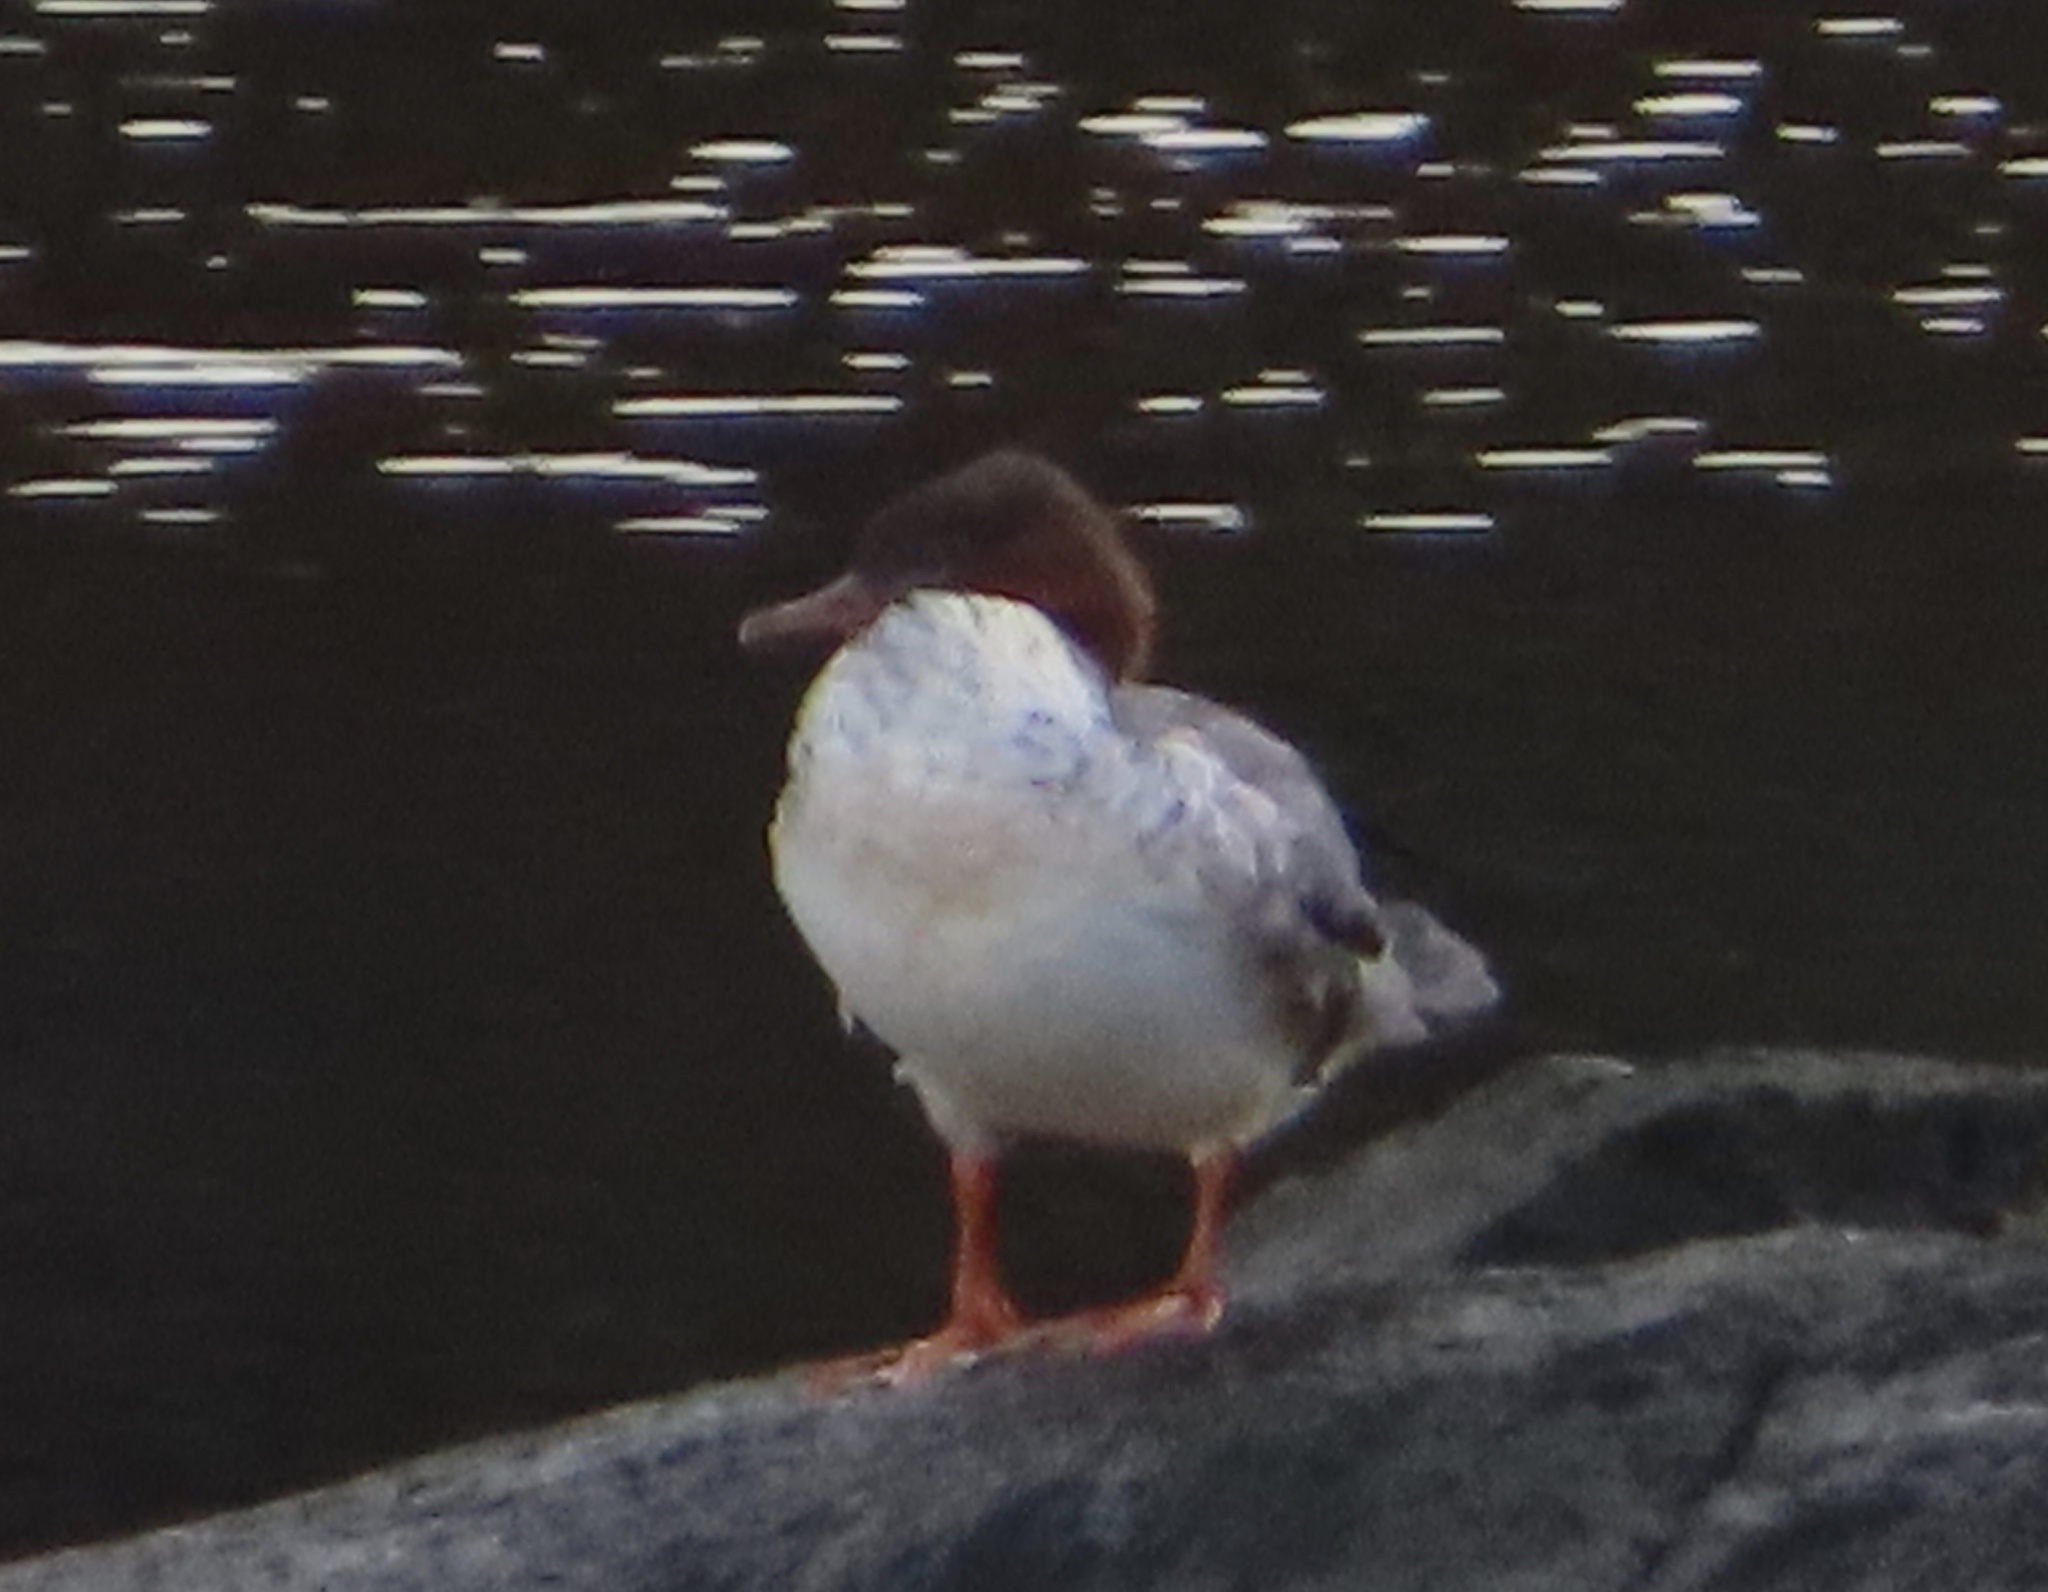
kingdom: Animalia
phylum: Chordata
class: Aves
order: Anseriformes
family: Anatidae
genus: Mergus
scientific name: Mergus merganser
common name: Common merganser
